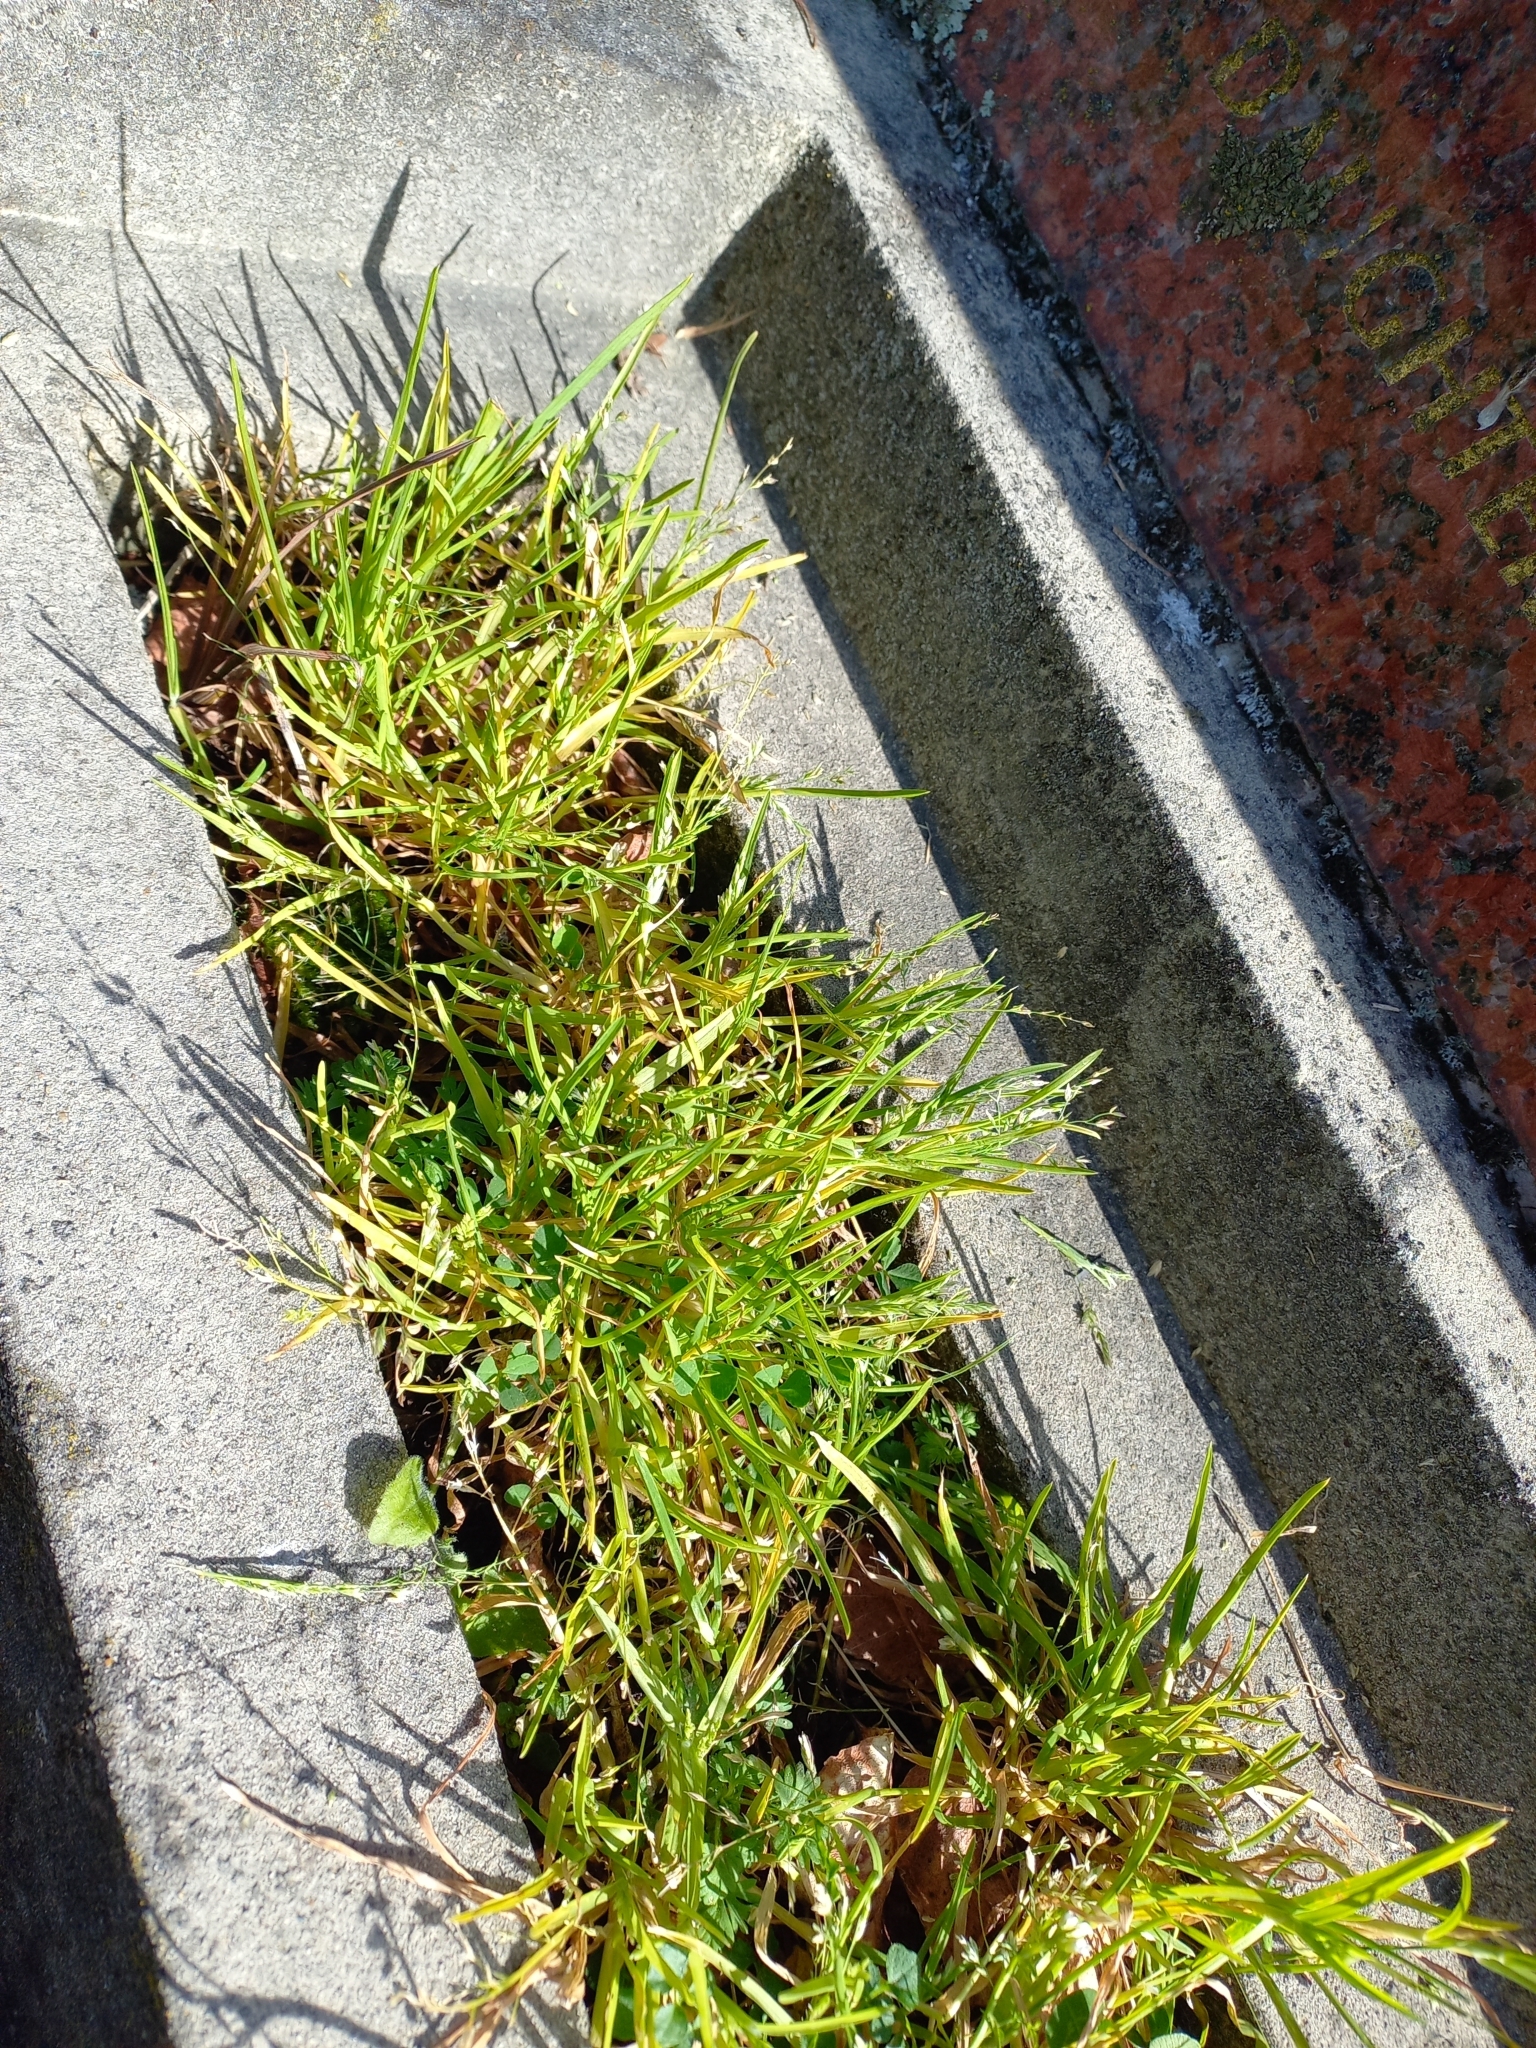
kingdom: Plantae
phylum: Tracheophyta
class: Liliopsida
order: Poales
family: Poaceae
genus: Poa
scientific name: Poa annua
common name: Annual bluegrass
